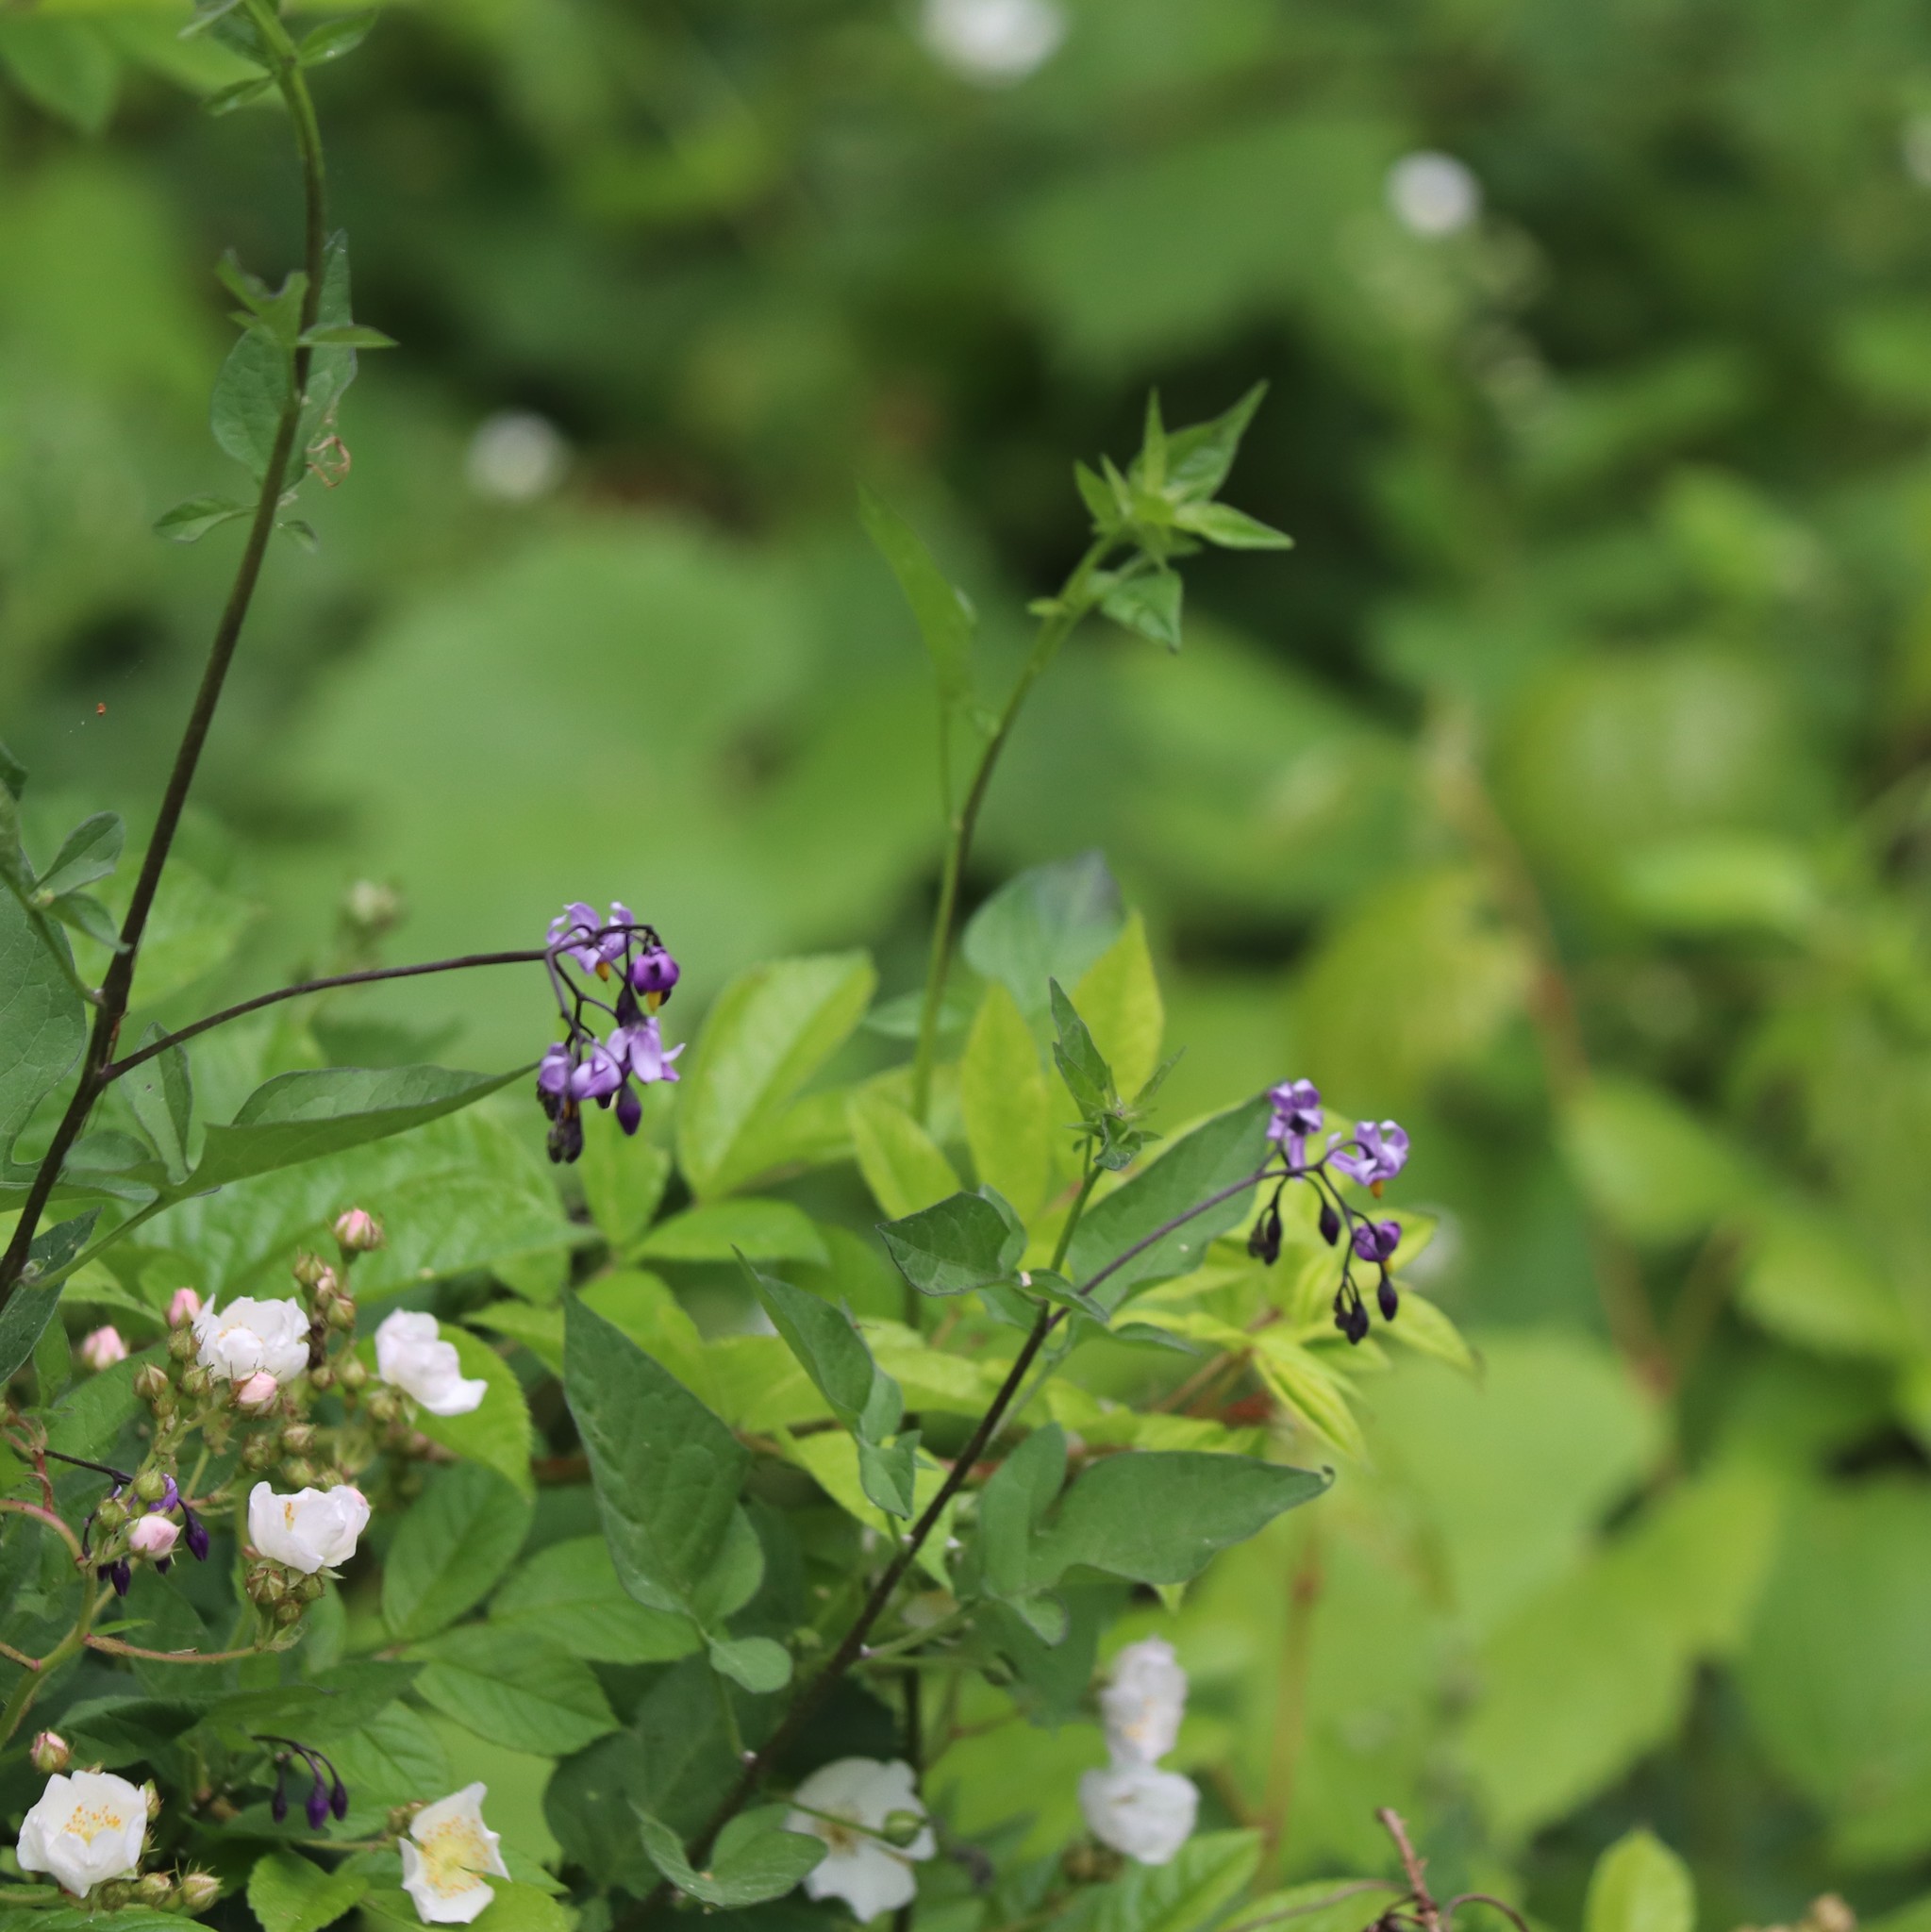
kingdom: Plantae
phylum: Tracheophyta
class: Magnoliopsida
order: Solanales
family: Solanaceae
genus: Solanum
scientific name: Solanum dulcamara
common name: Climbing nightshade
